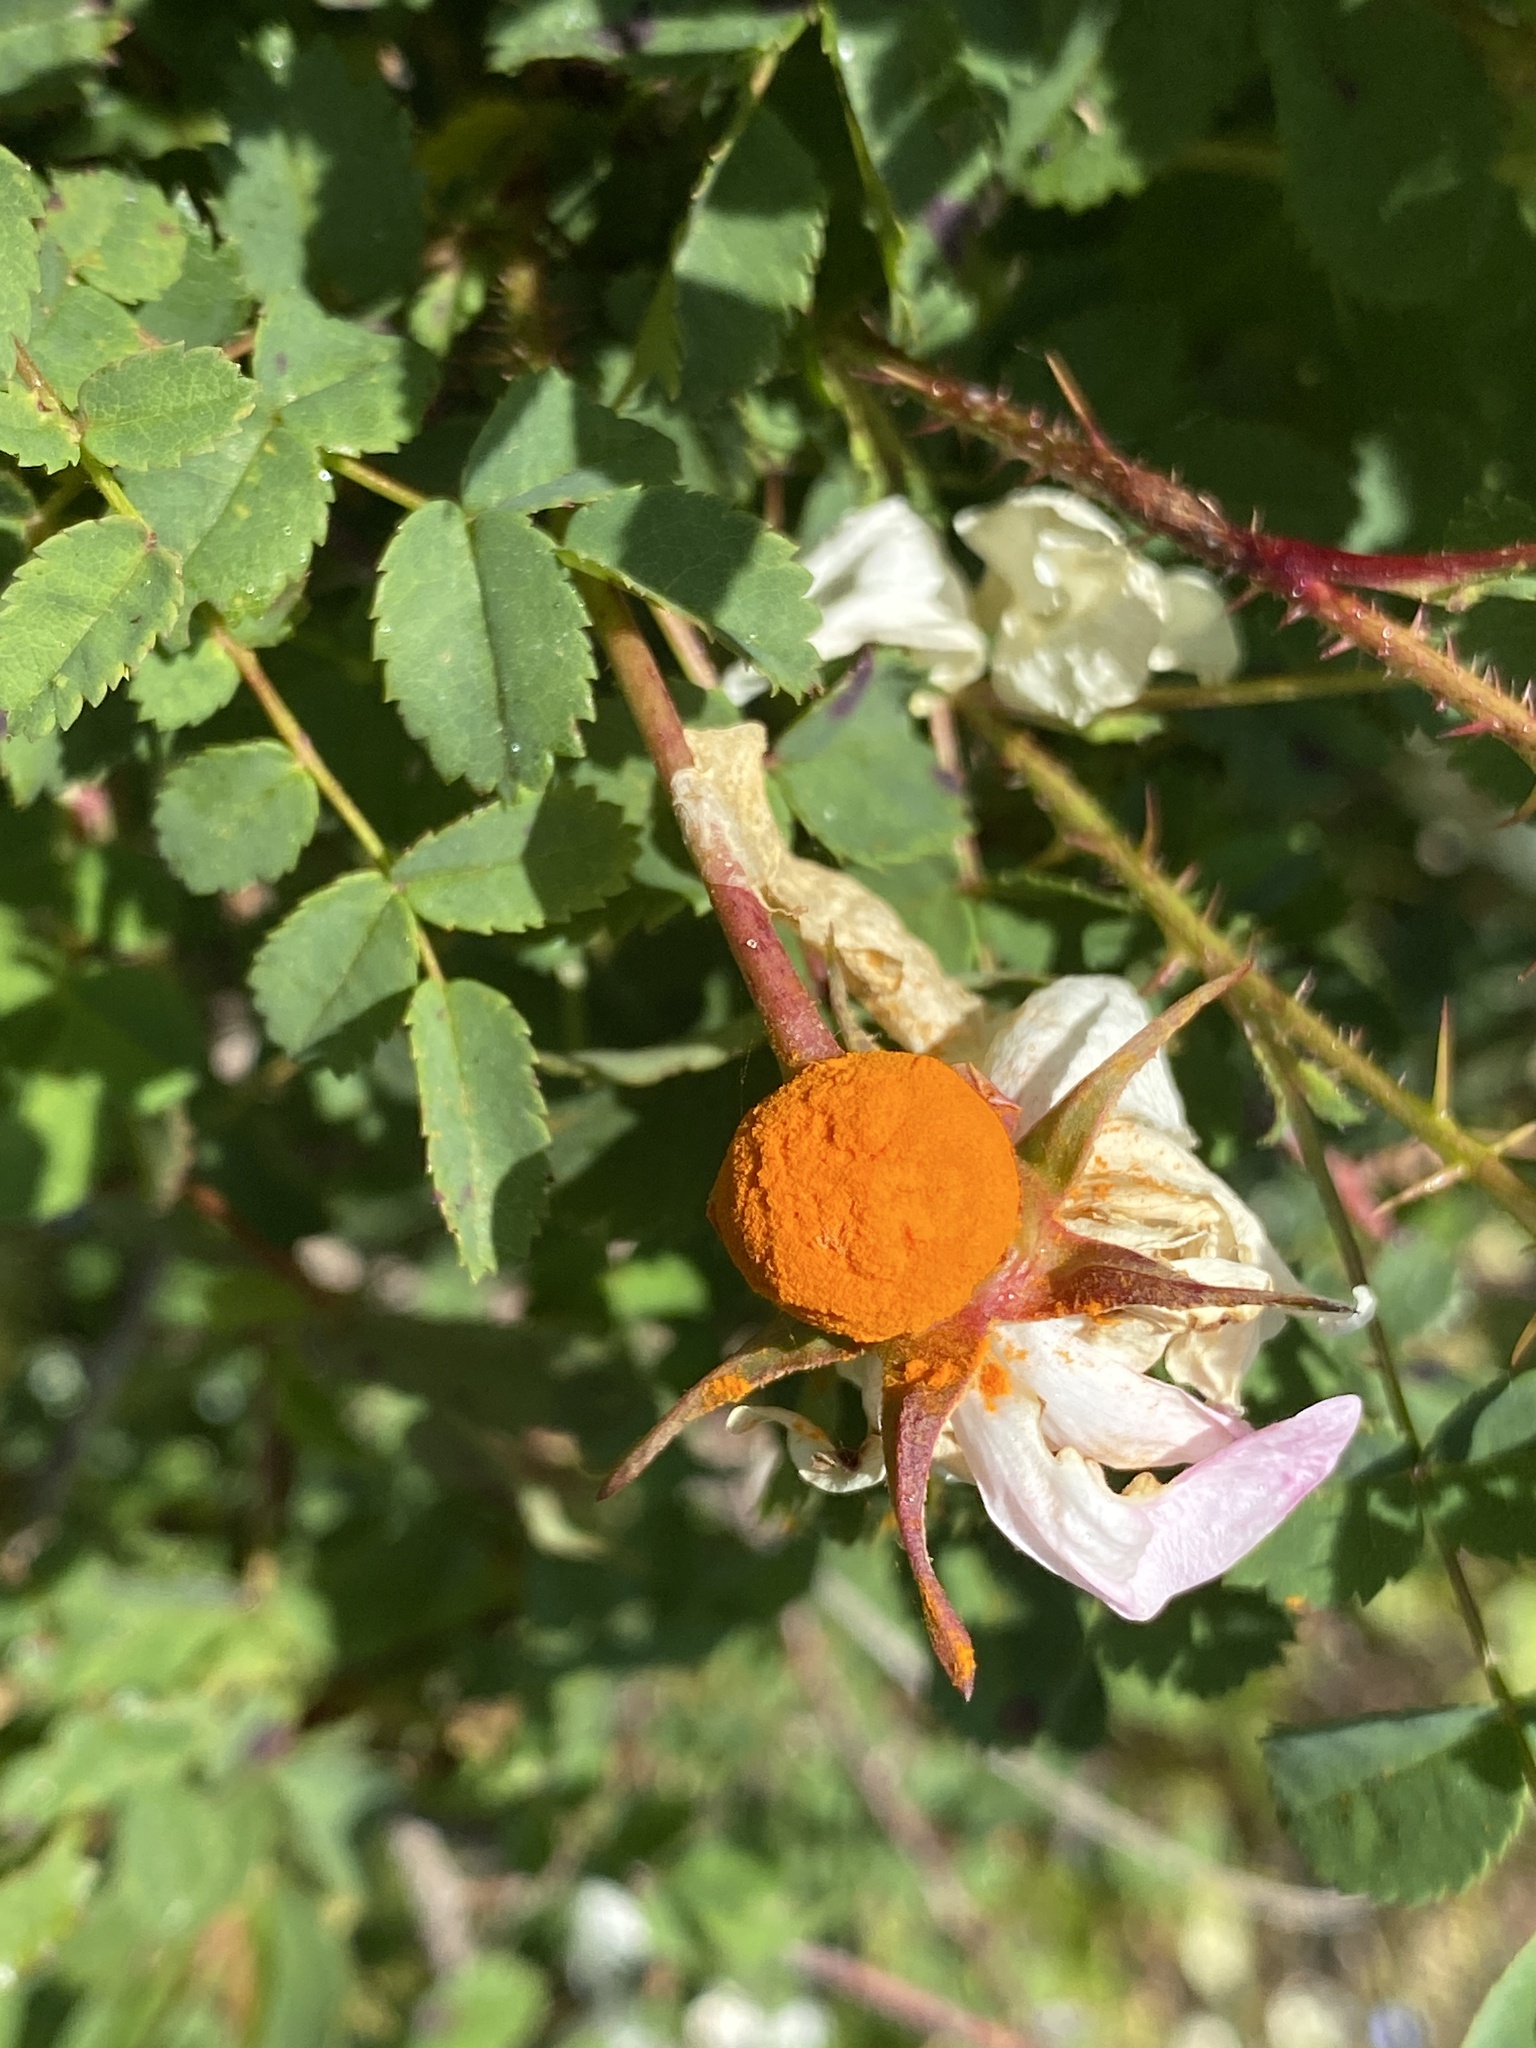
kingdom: Fungi
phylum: Basidiomycota
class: Pucciniomycetes
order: Pucciniales
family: Phragmidiaceae
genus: Phragmidium
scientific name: Phragmidium
